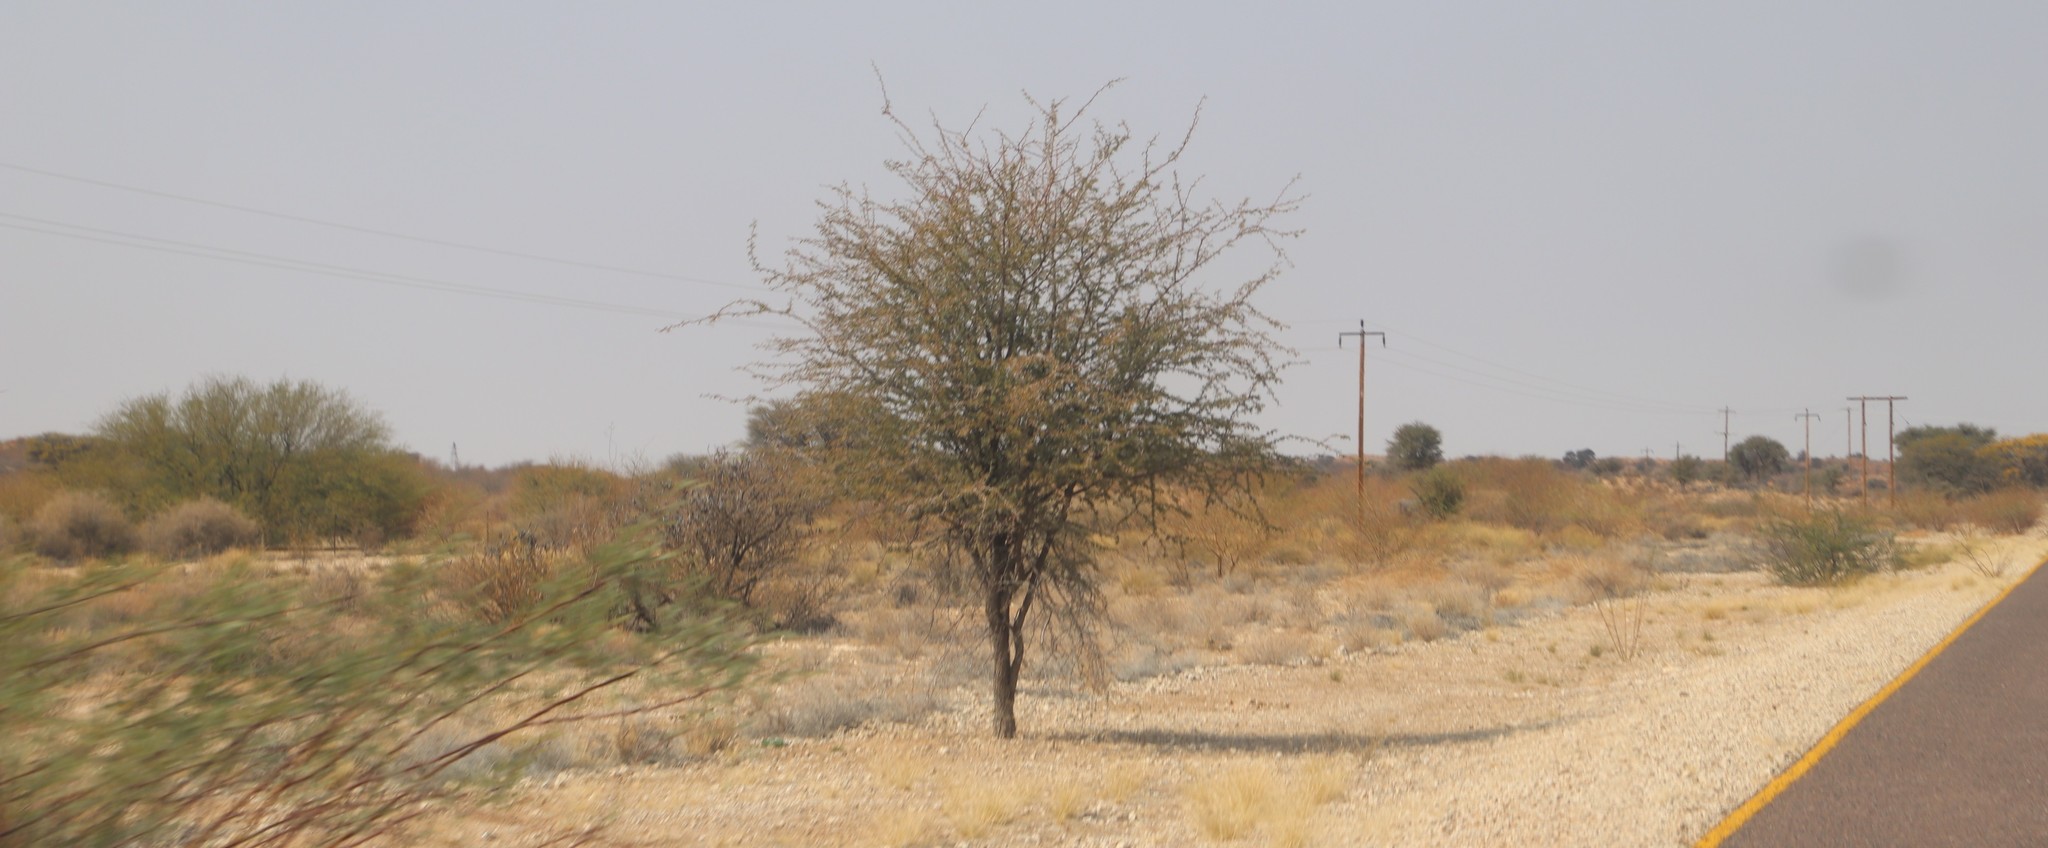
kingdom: Plantae
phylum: Tracheophyta
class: Magnoliopsida
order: Fabales
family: Fabaceae
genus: Vachellia
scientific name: Vachellia erioloba
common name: Camel thorn
